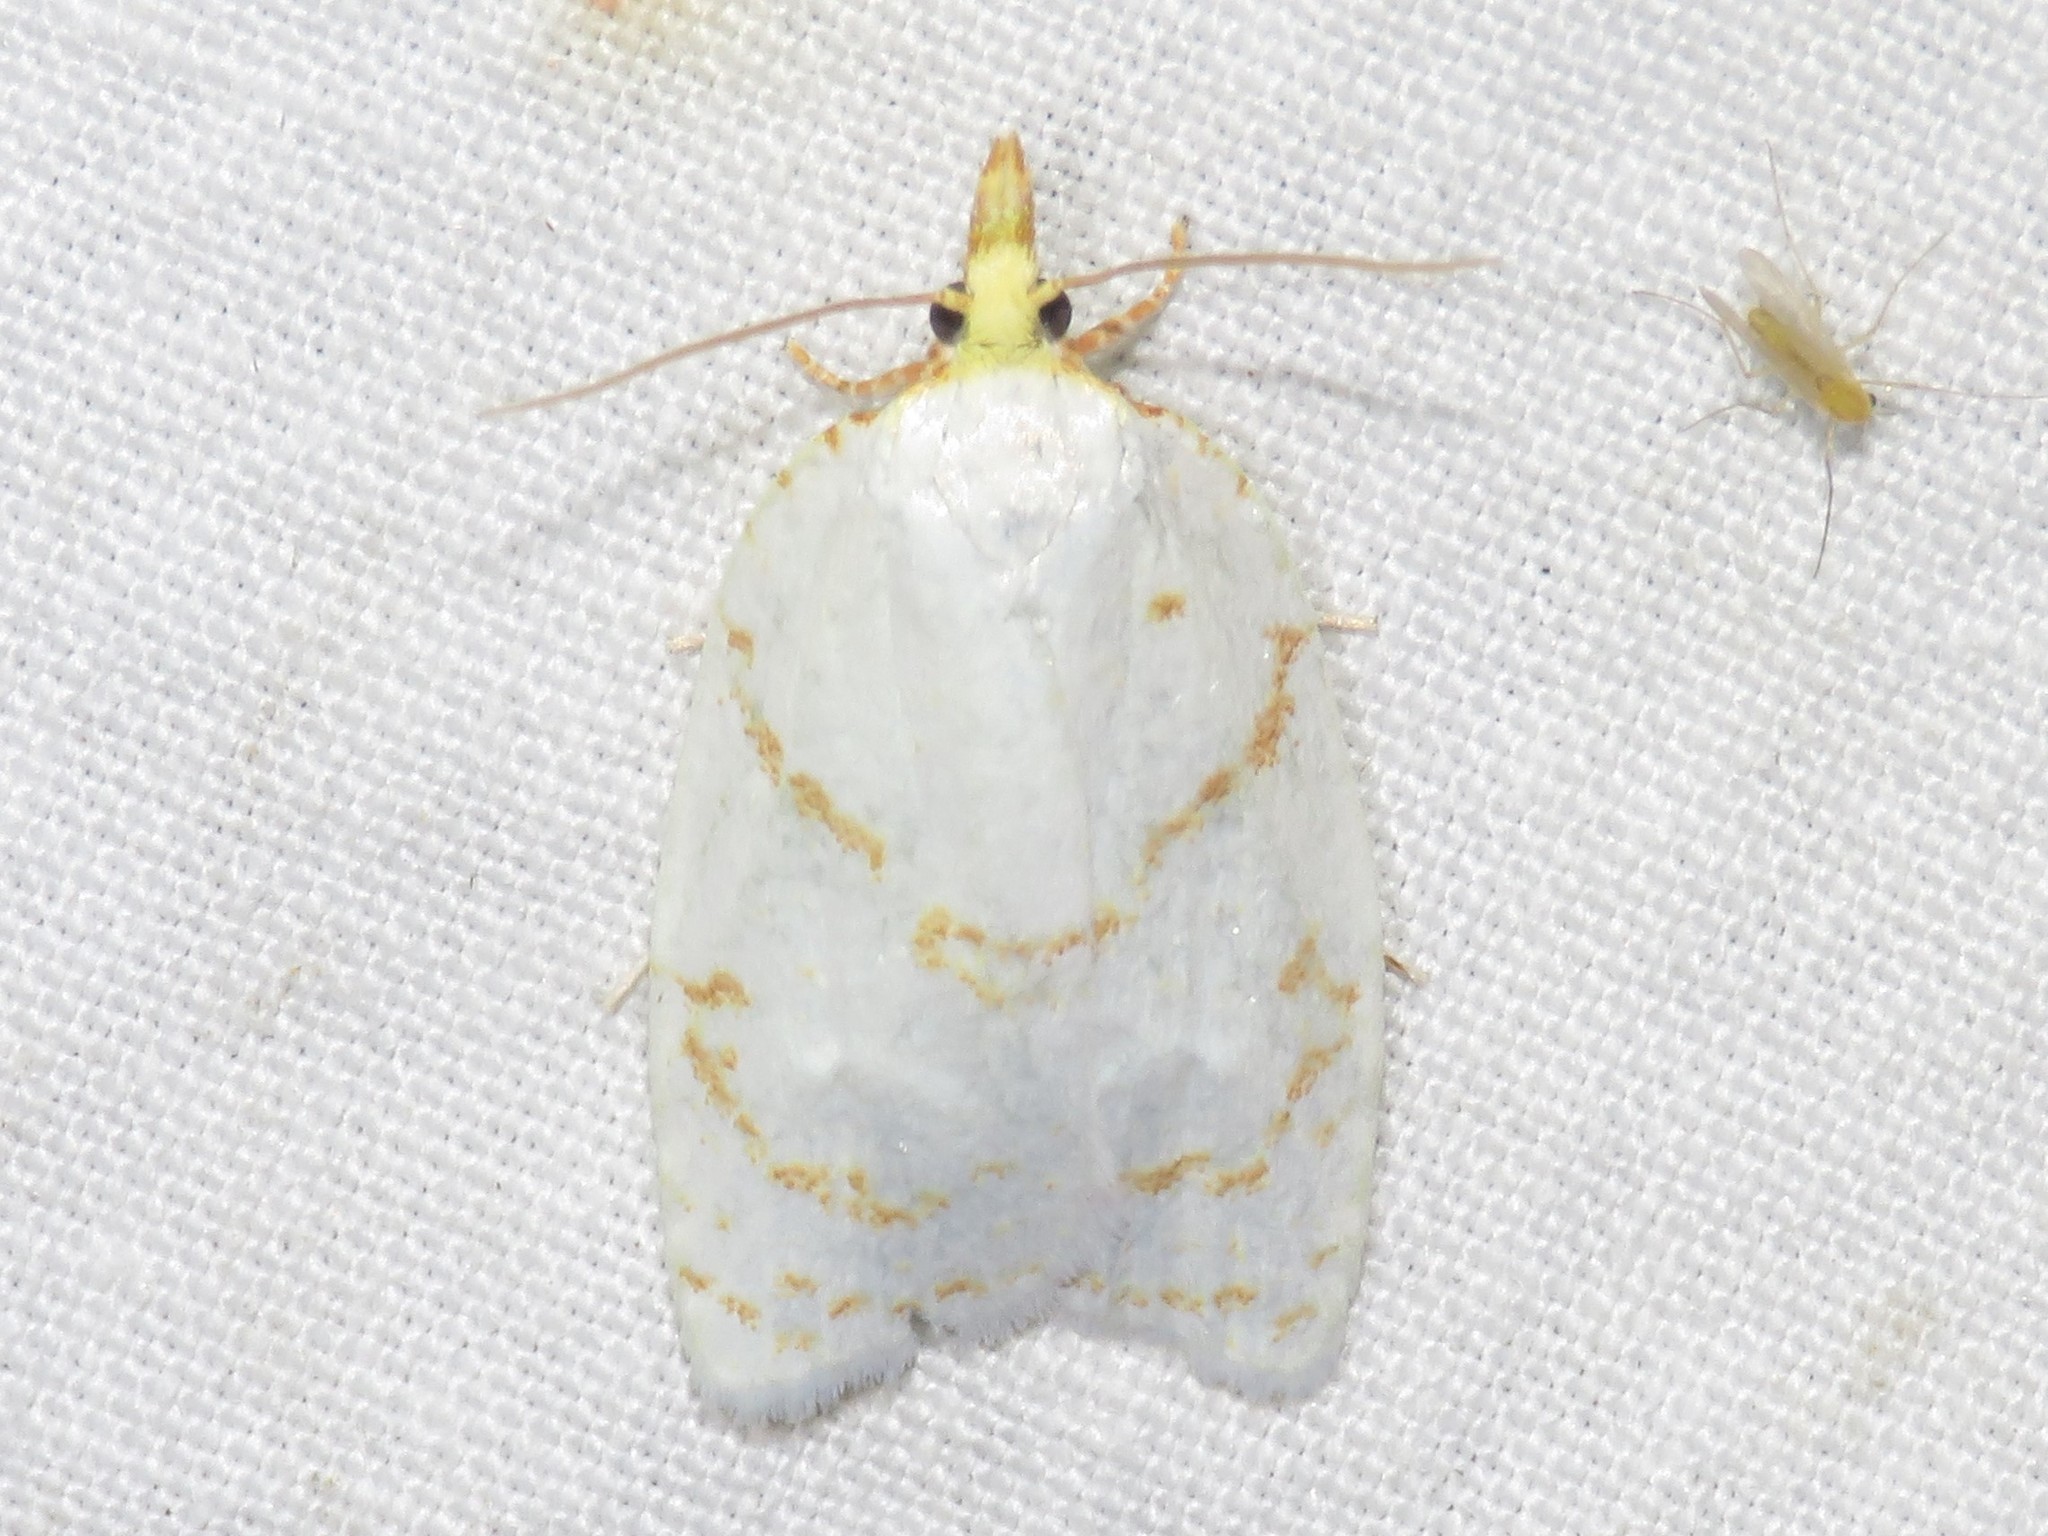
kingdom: Animalia
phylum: Arthropoda
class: Insecta
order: Lepidoptera
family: Tortricidae
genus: Cenopis
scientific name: Cenopis pettitana
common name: Maple-basswood leafroller moth
